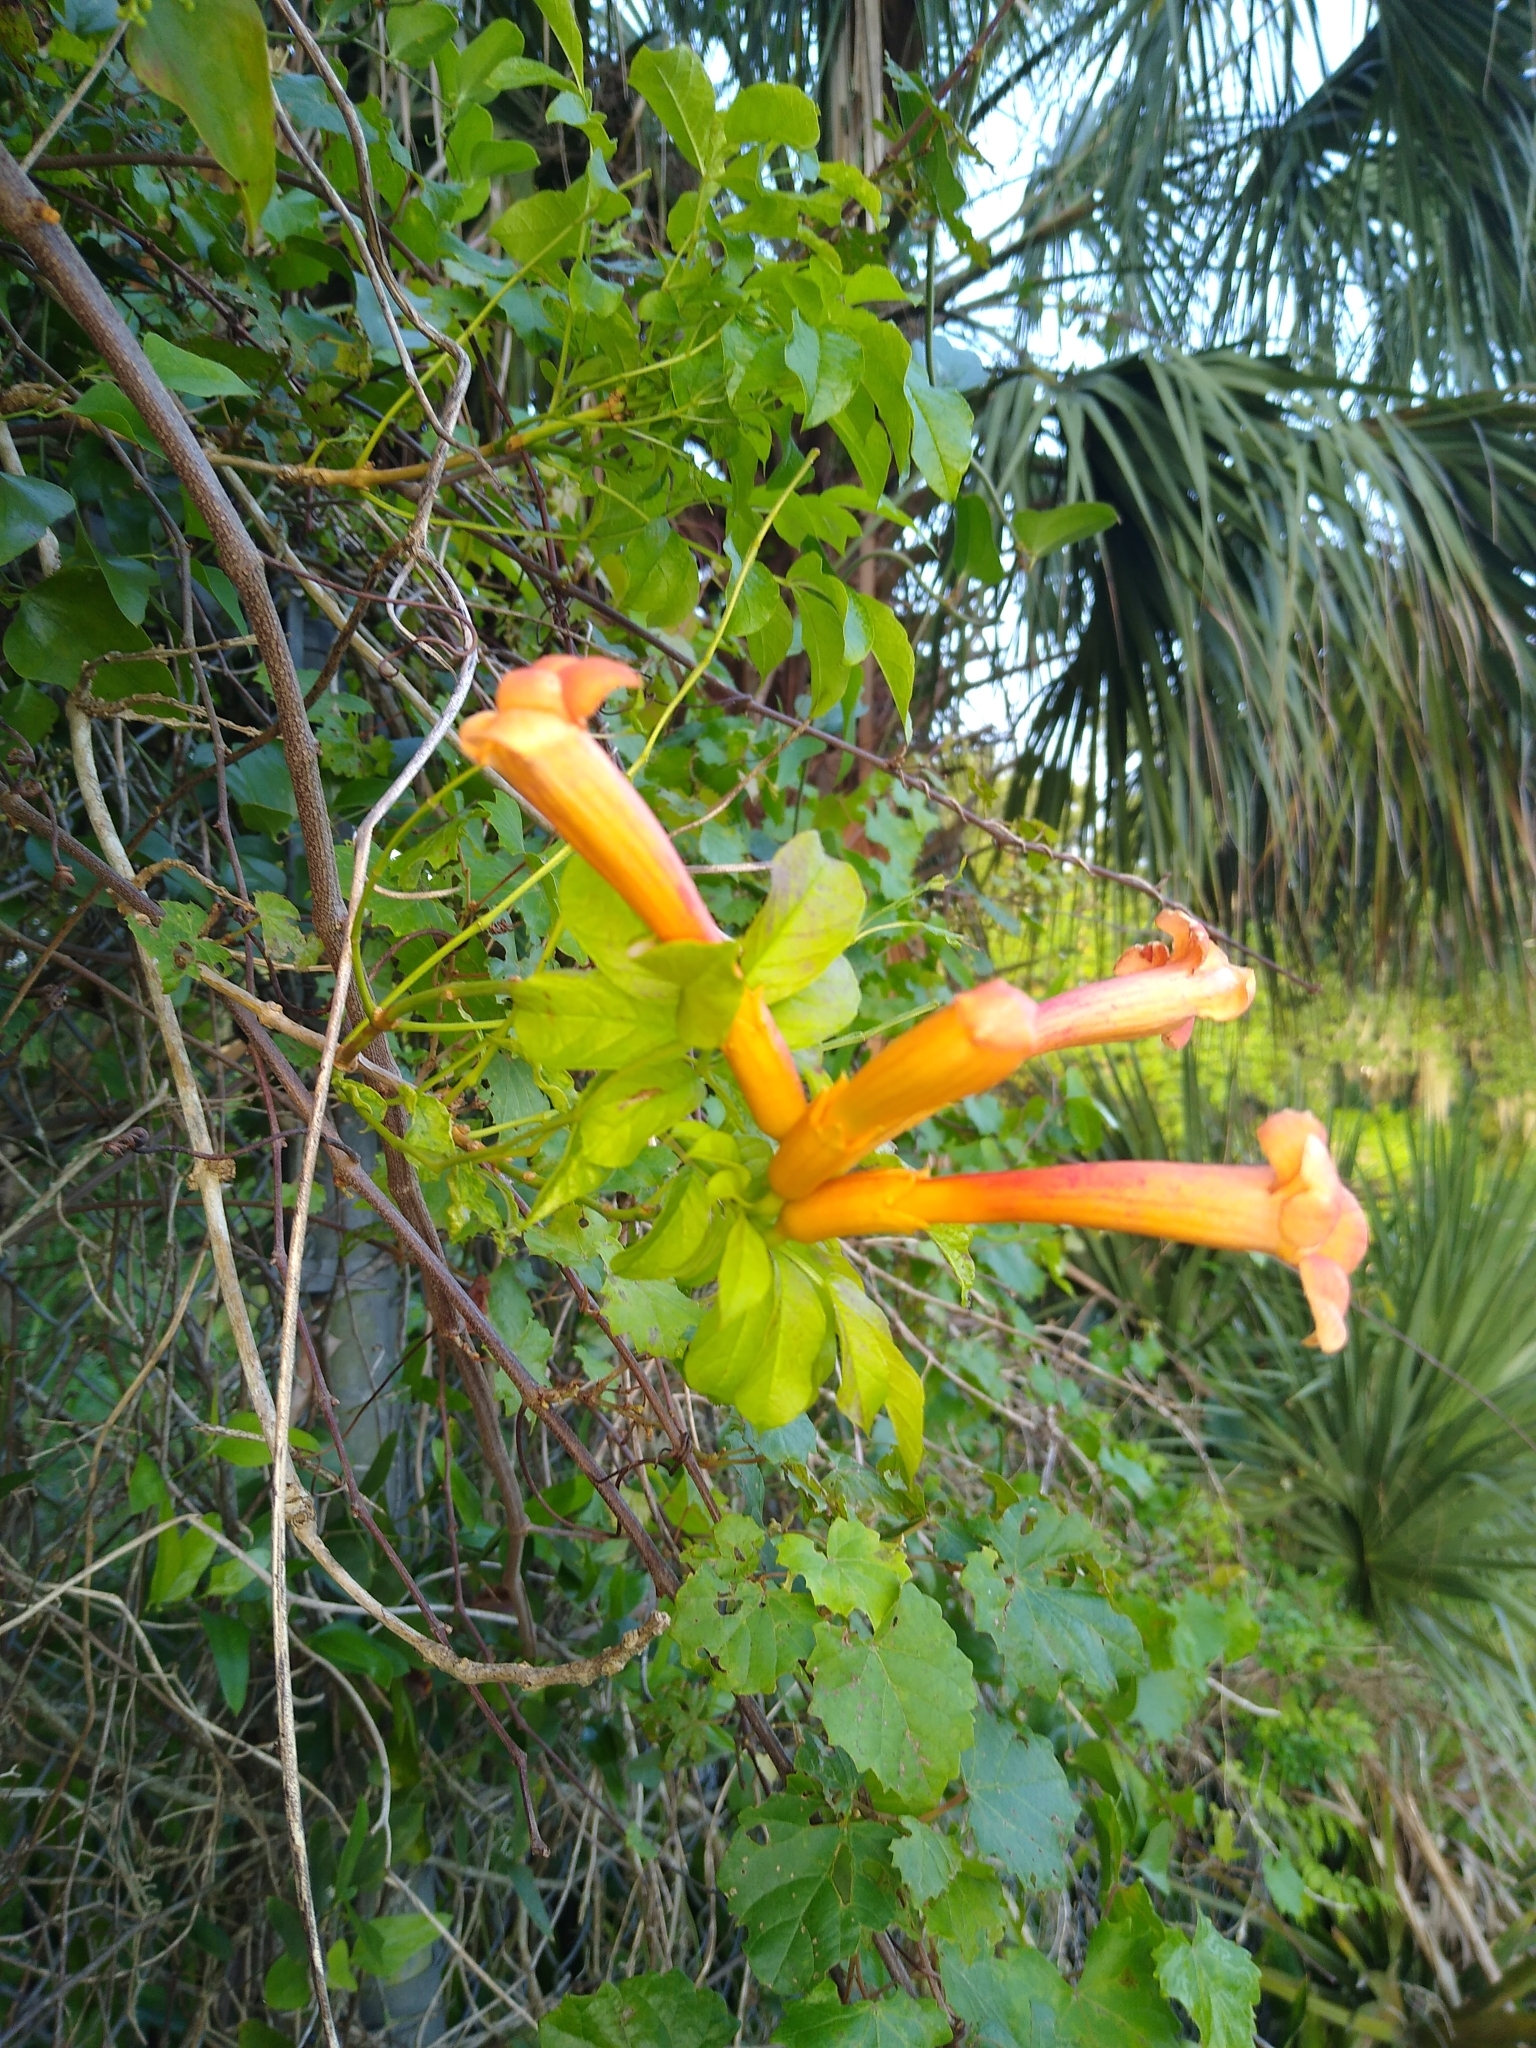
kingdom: Plantae
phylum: Tracheophyta
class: Magnoliopsida
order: Lamiales
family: Bignoniaceae
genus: Campsis
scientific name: Campsis radicans
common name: Trumpet-creeper
